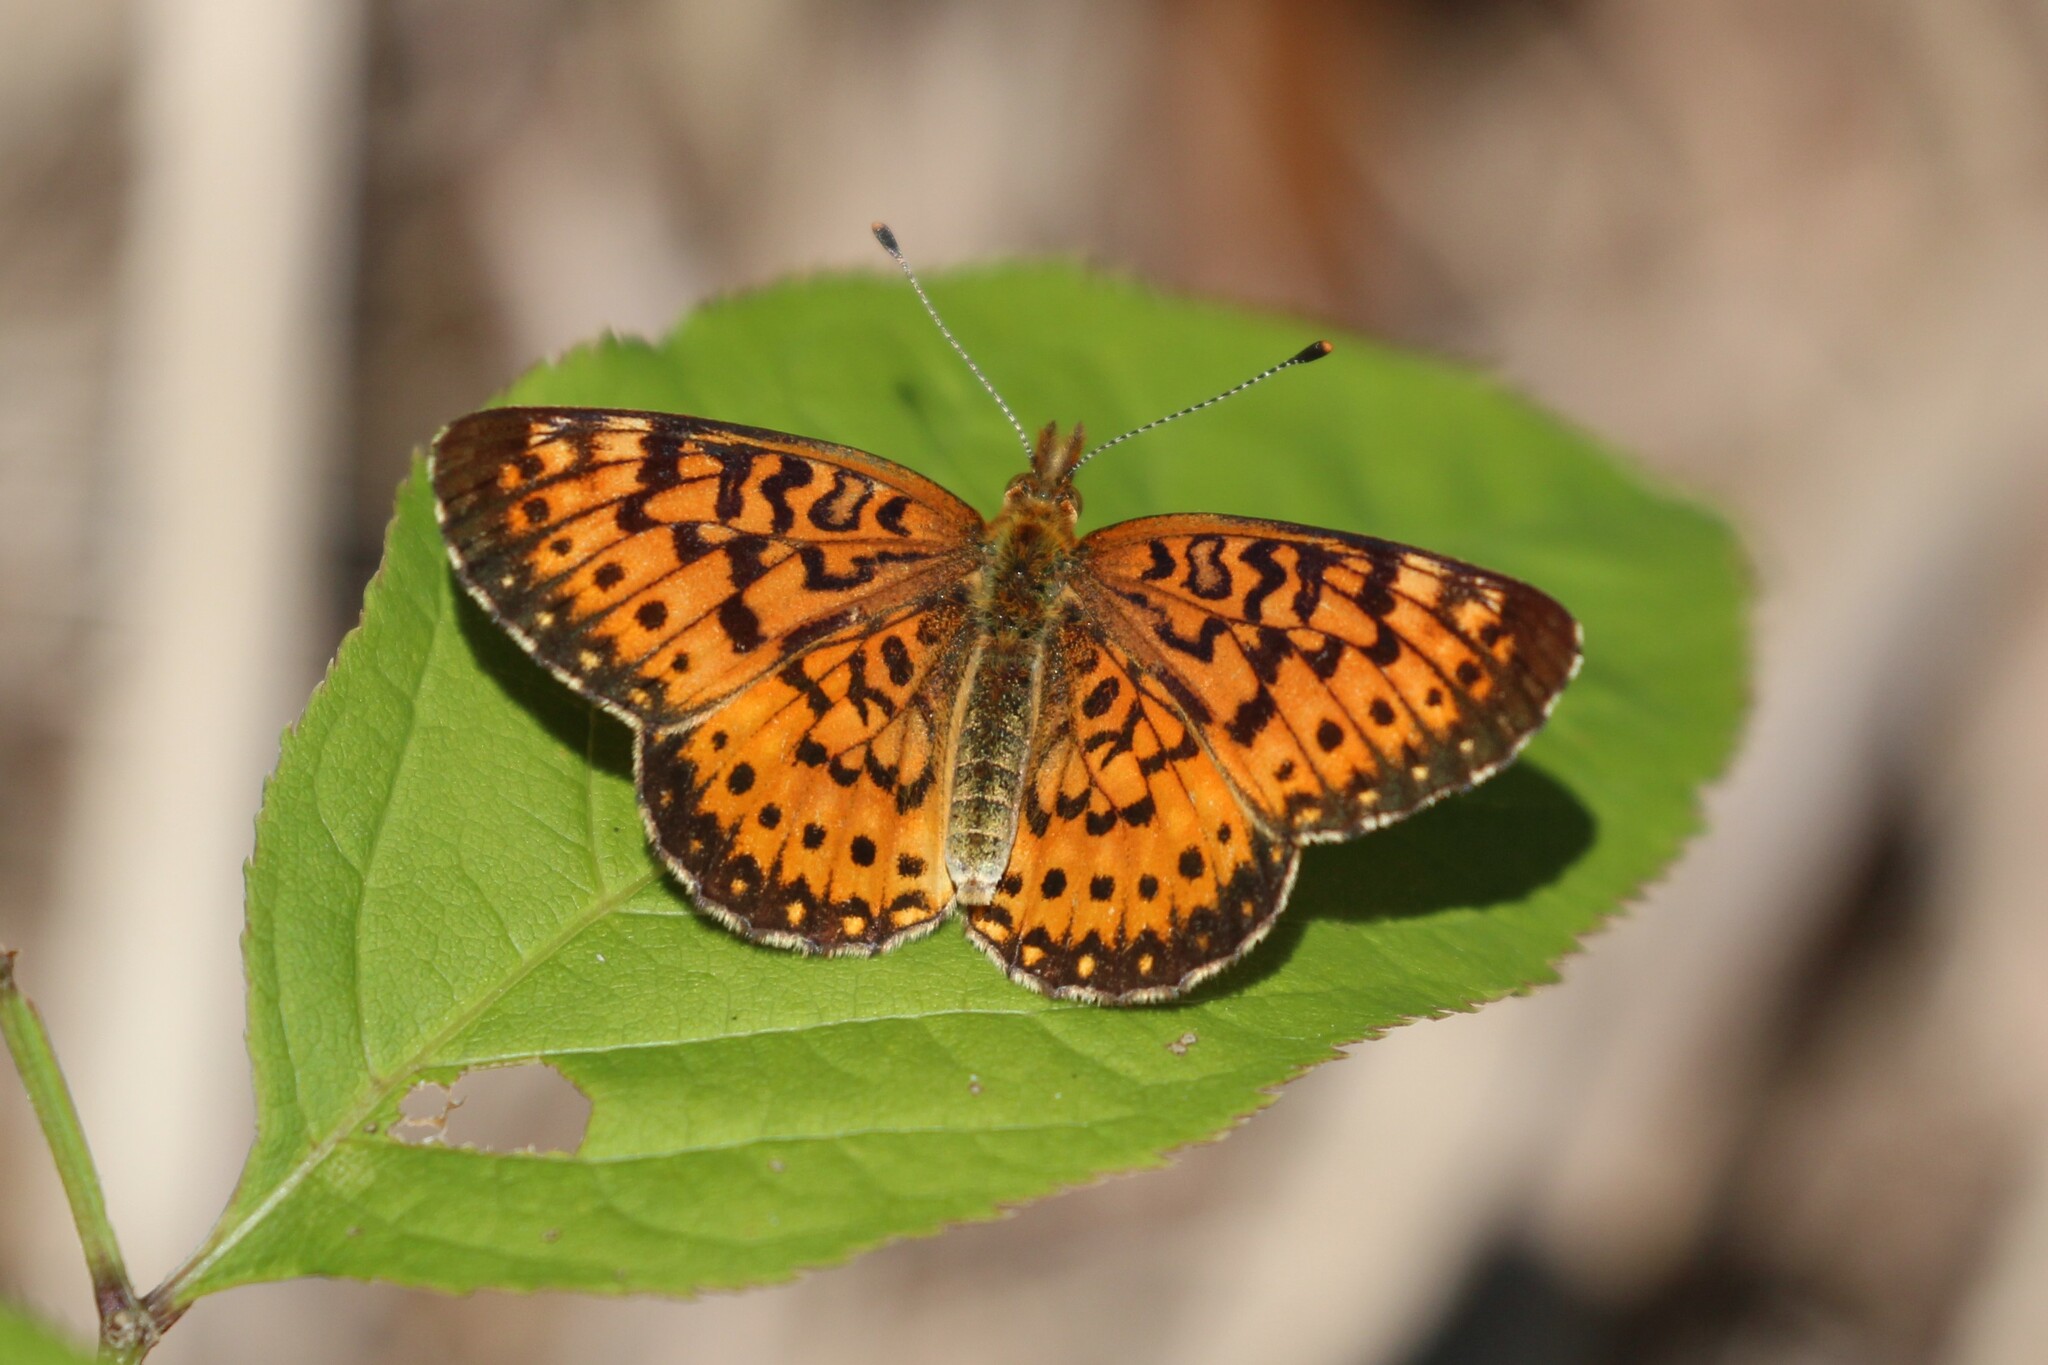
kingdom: Animalia
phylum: Arthropoda
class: Insecta
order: Lepidoptera
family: Nymphalidae
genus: Boloria
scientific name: Boloria
